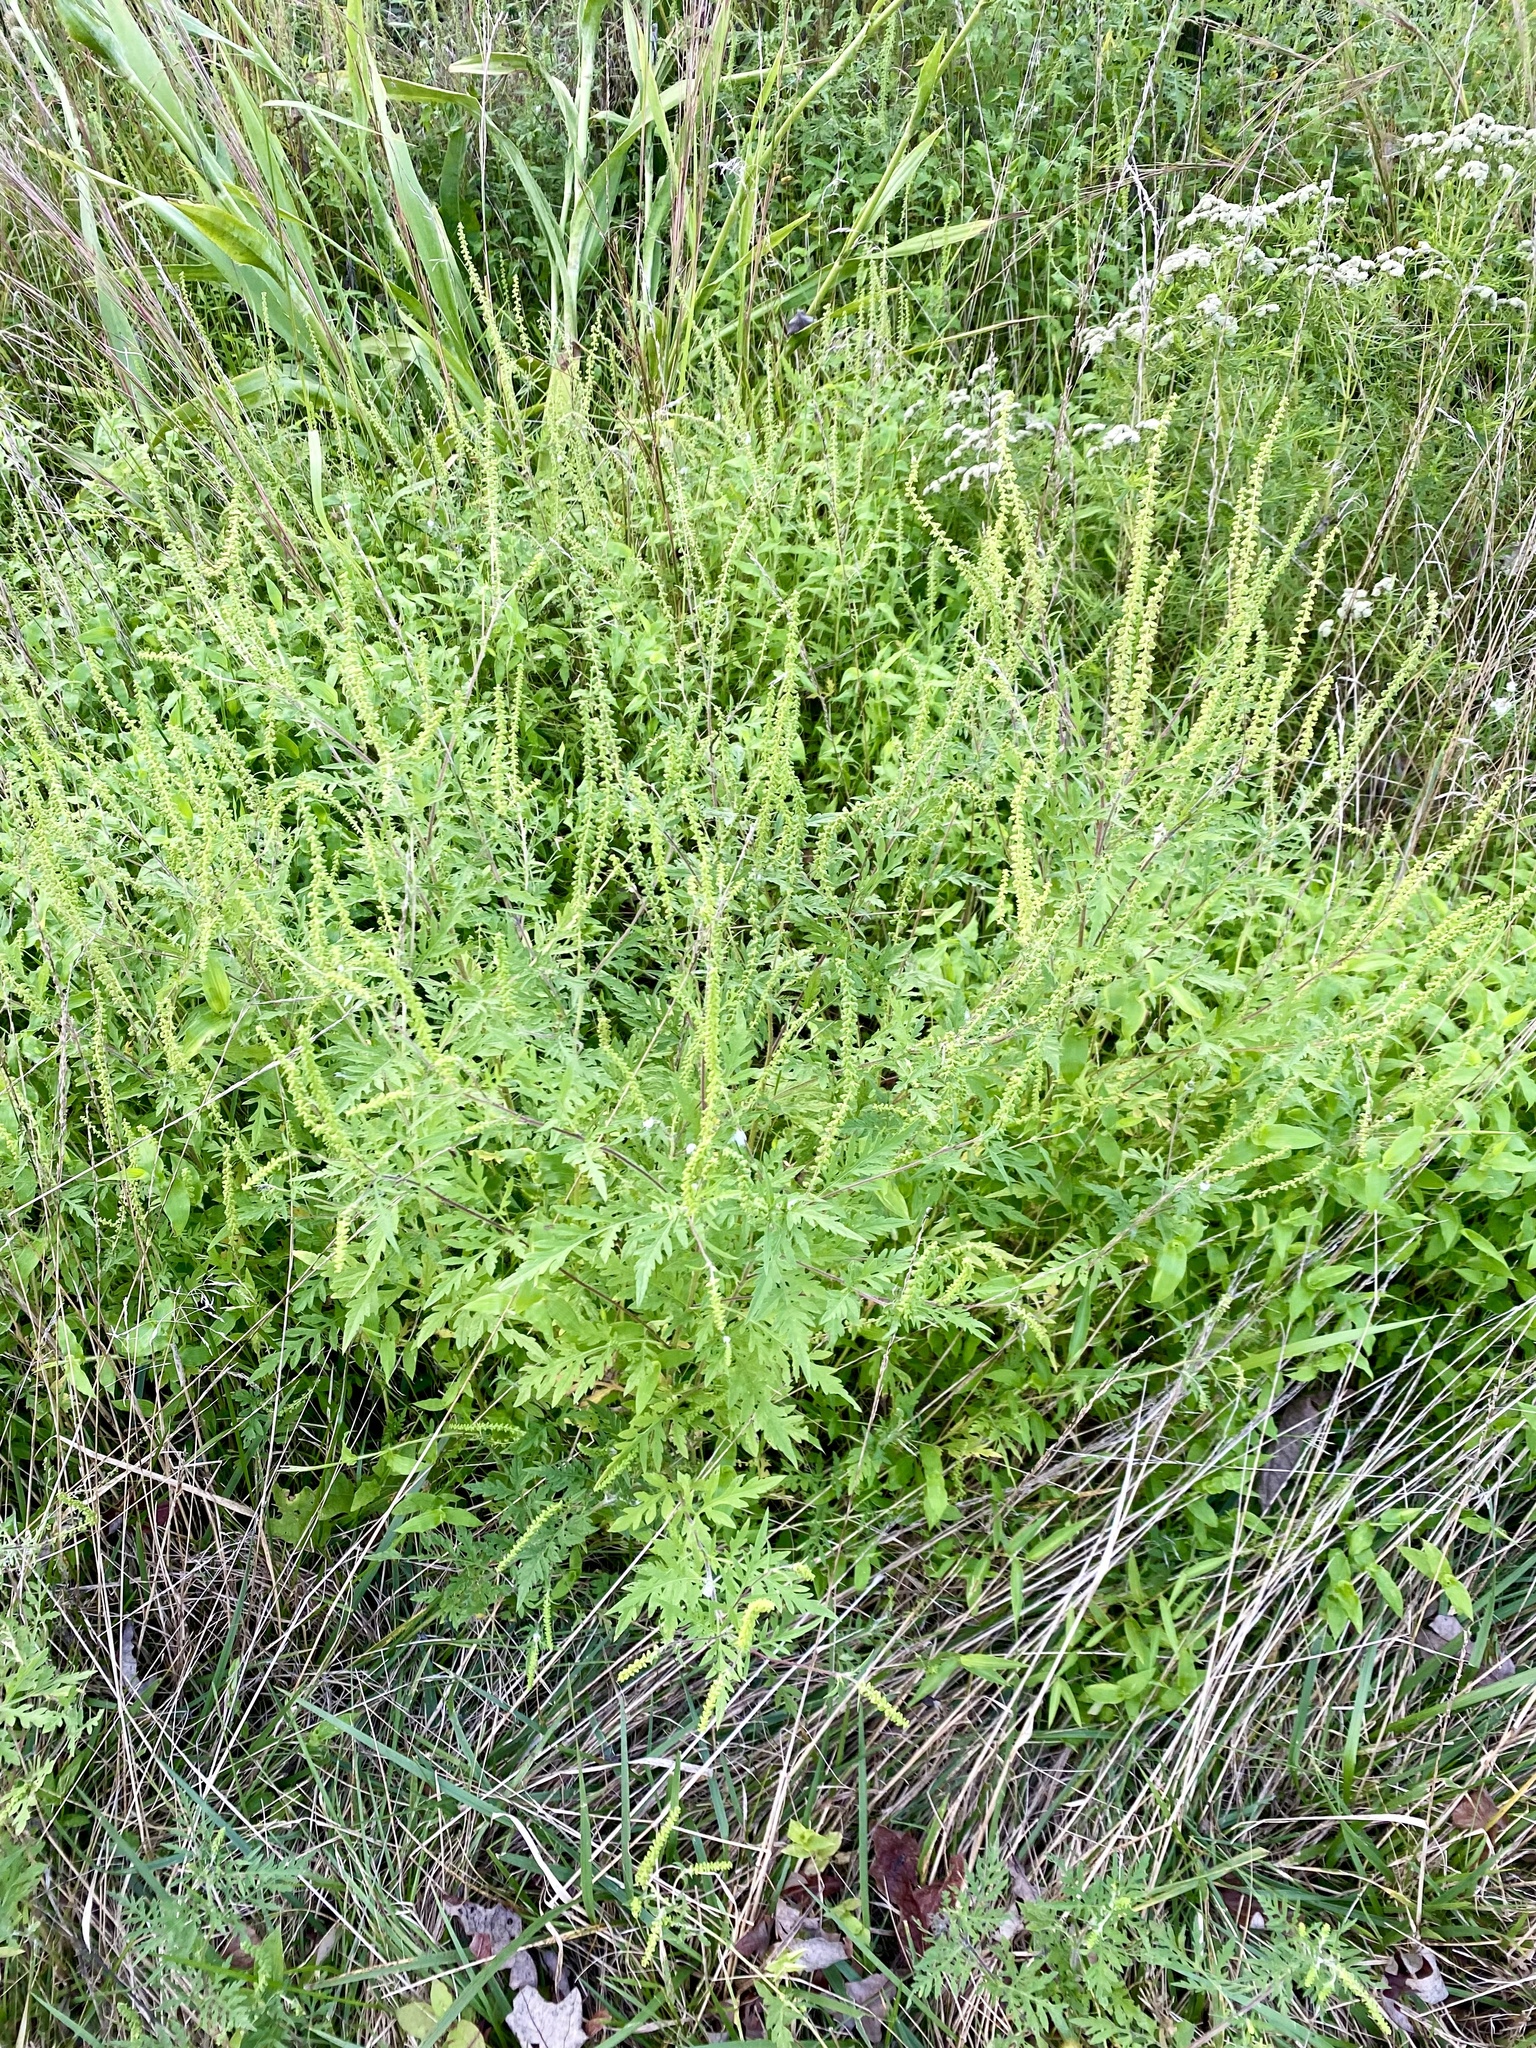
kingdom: Plantae
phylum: Tracheophyta
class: Magnoliopsida
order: Asterales
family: Asteraceae
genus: Ambrosia
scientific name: Ambrosia artemisiifolia
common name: Annual ragweed
